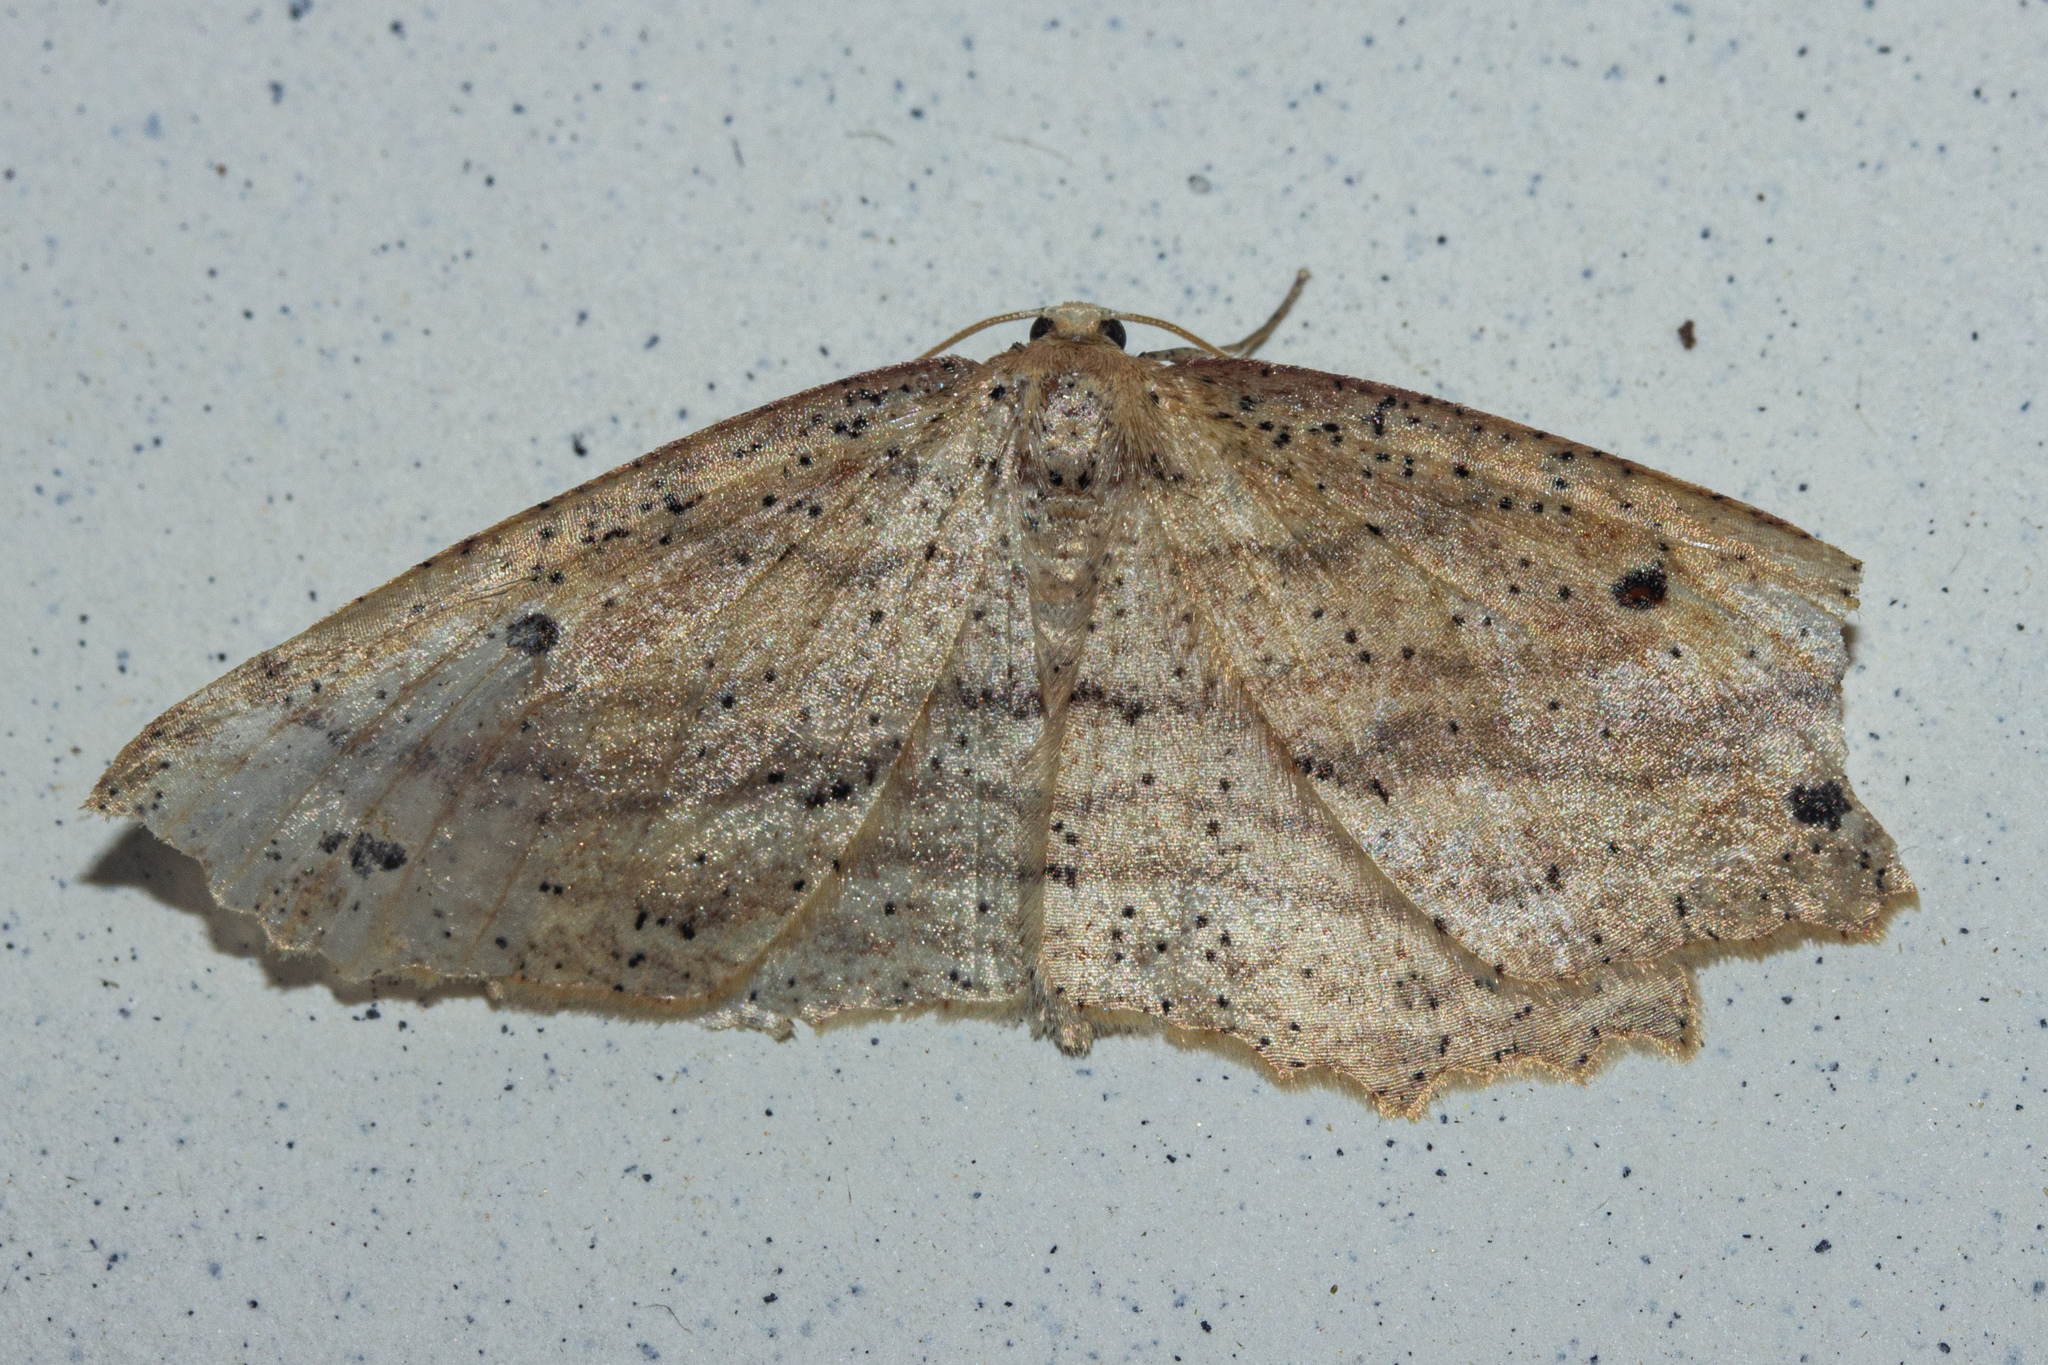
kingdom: Animalia
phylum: Arthropoda
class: Insecta
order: Lepidoptera
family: Geometridae
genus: Xyridacma
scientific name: Xyridacma veronicae
